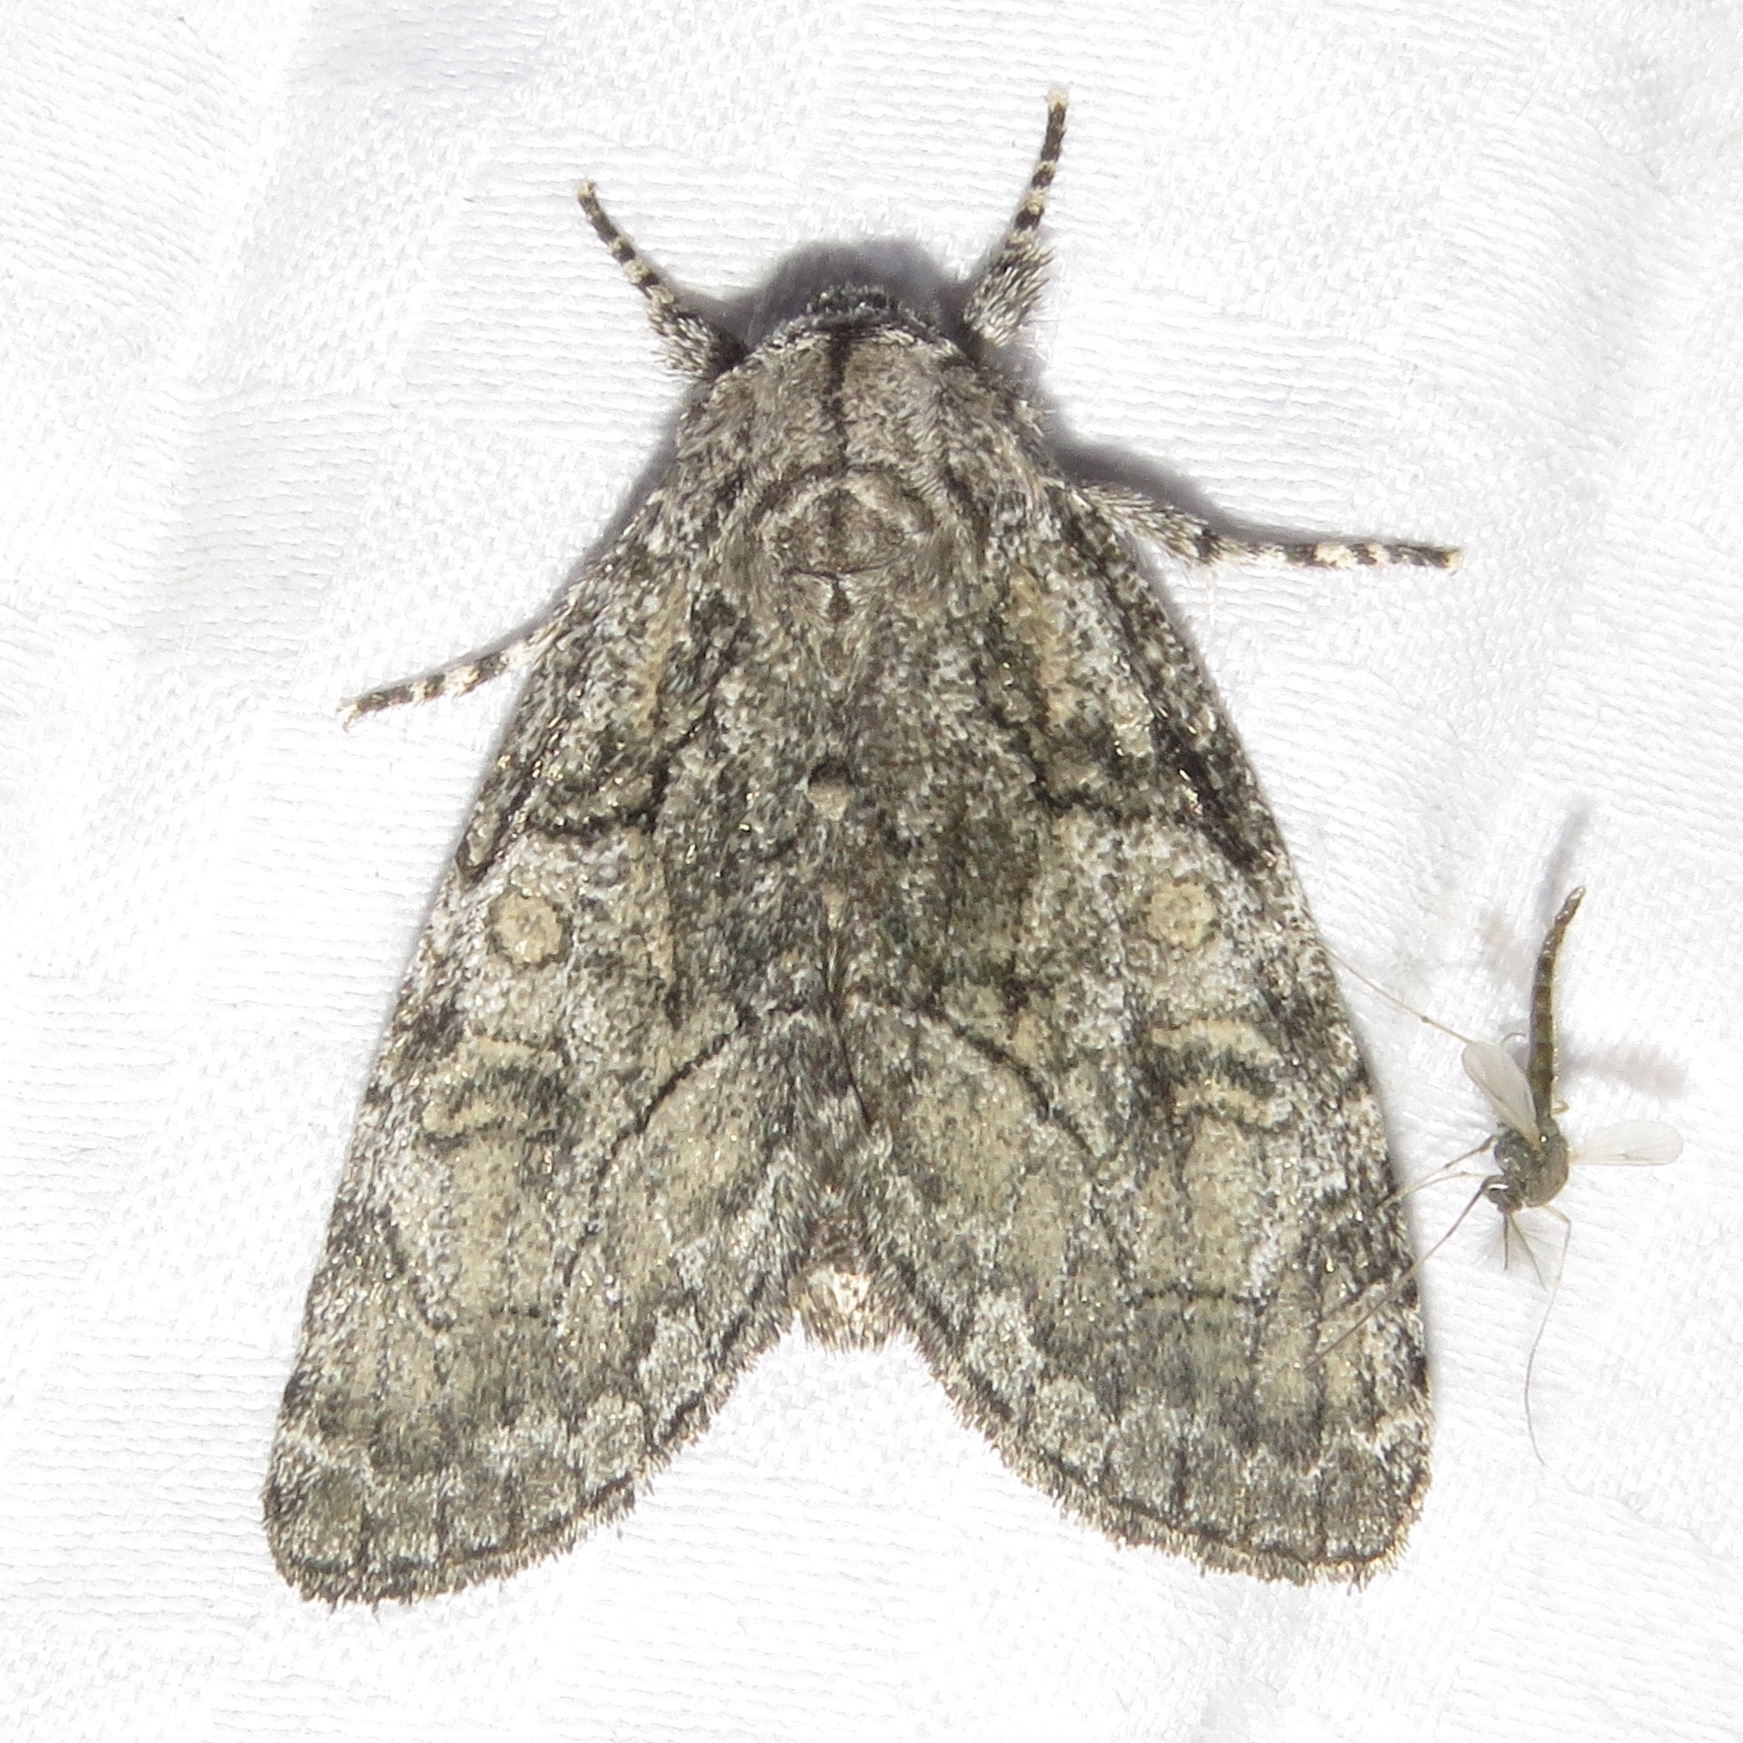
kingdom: Animalia
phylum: Arthropoda
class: Insecta
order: Lepidoptera
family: Noctuidae
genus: Raphia
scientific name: Raphia frater
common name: Brother
